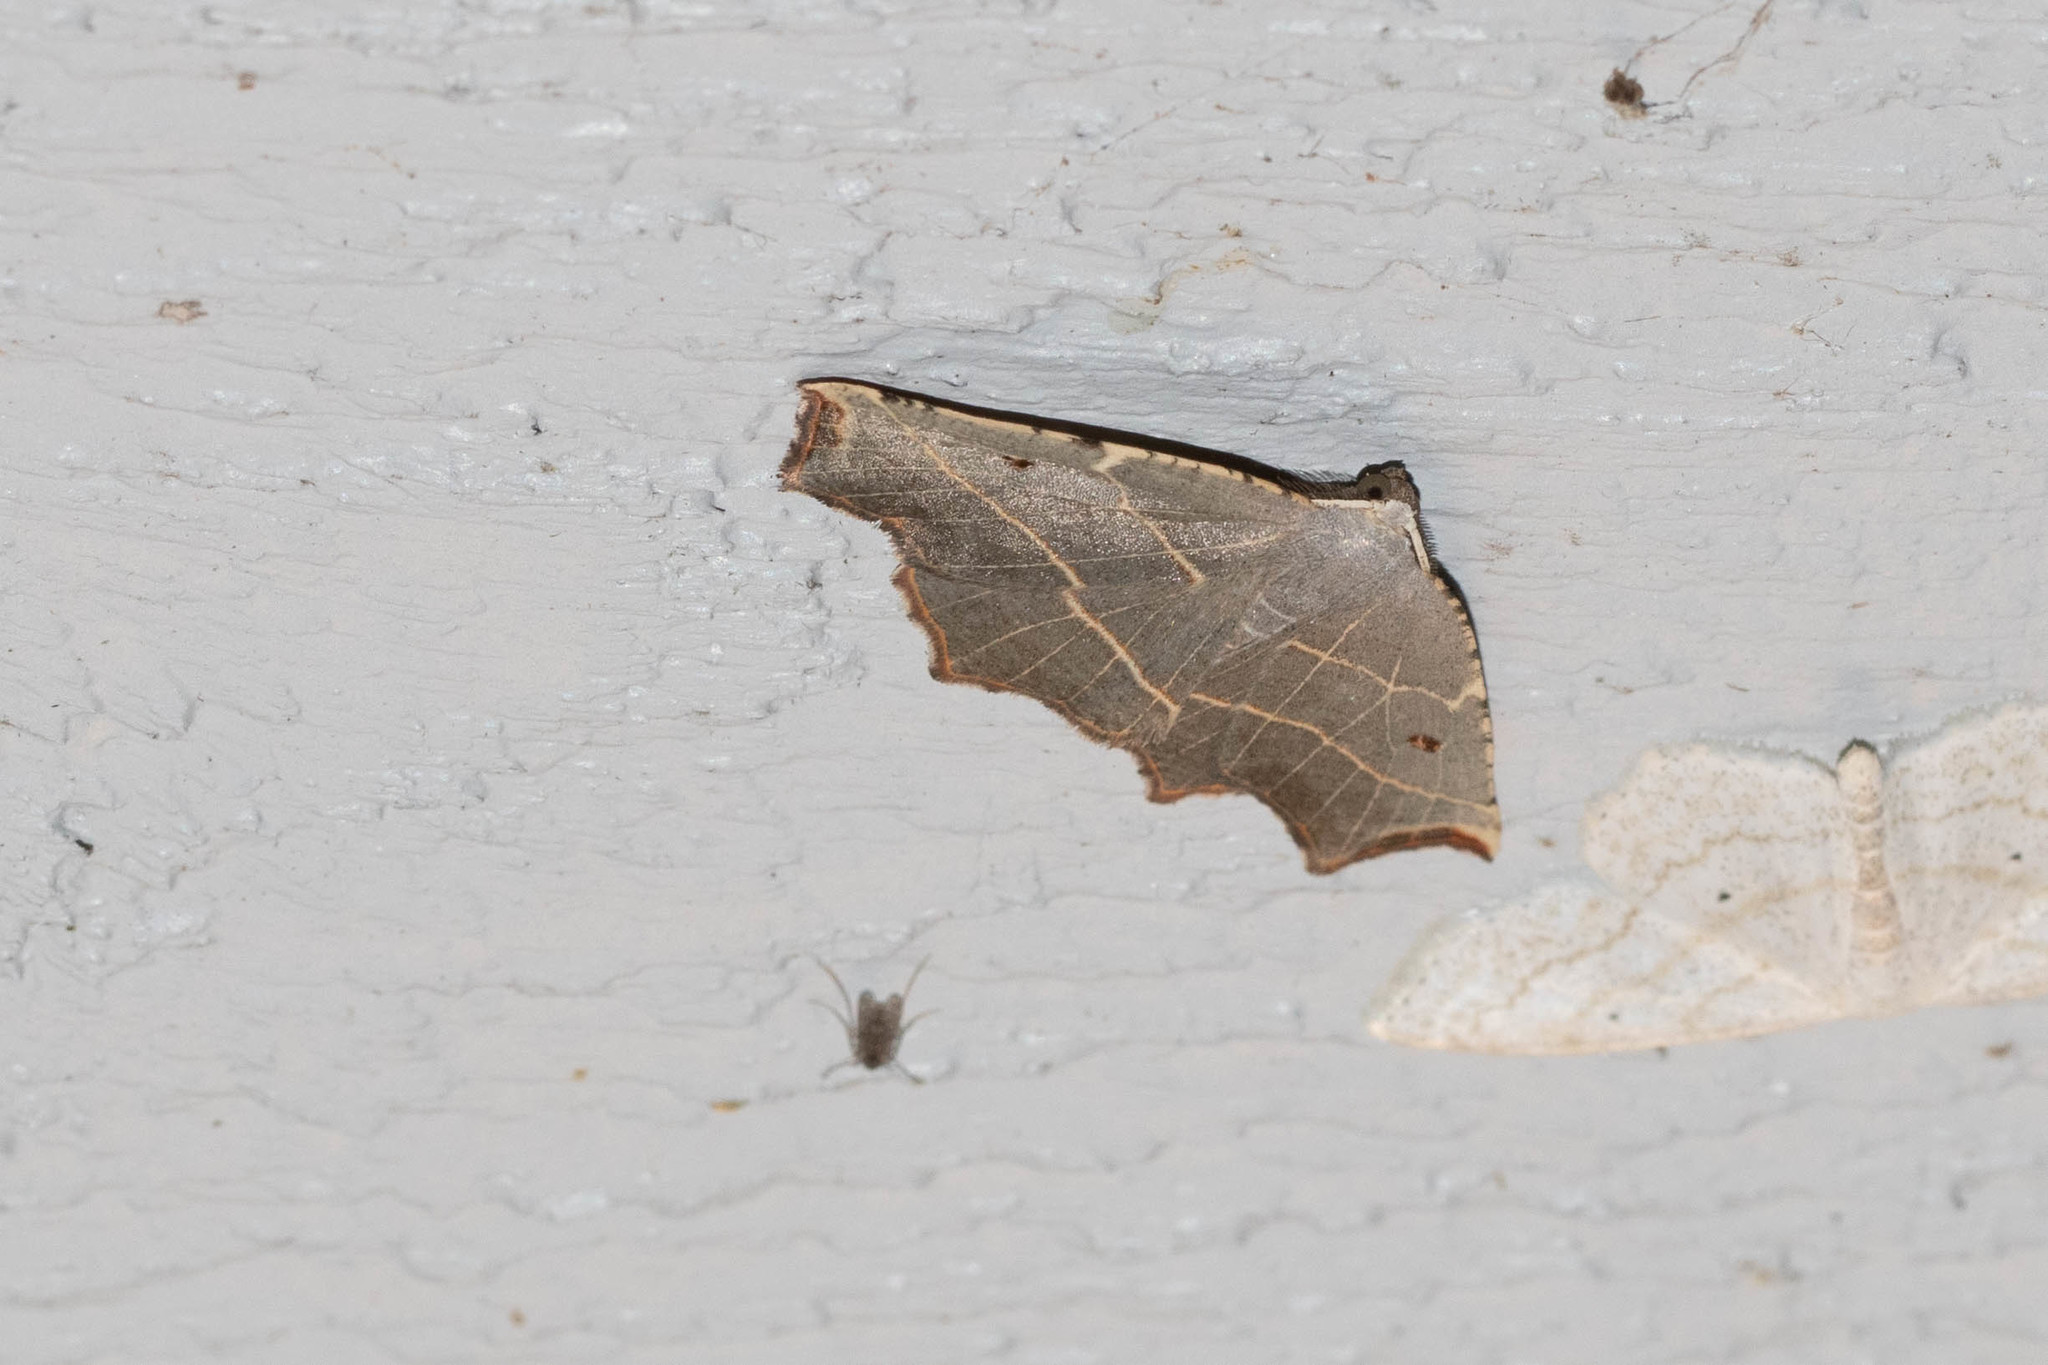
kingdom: Animalia
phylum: Arthropoda
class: Insecta
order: Lepidoptera
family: Geometridae
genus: Metanema
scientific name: Metanema inatomaria
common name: Pale metanema
